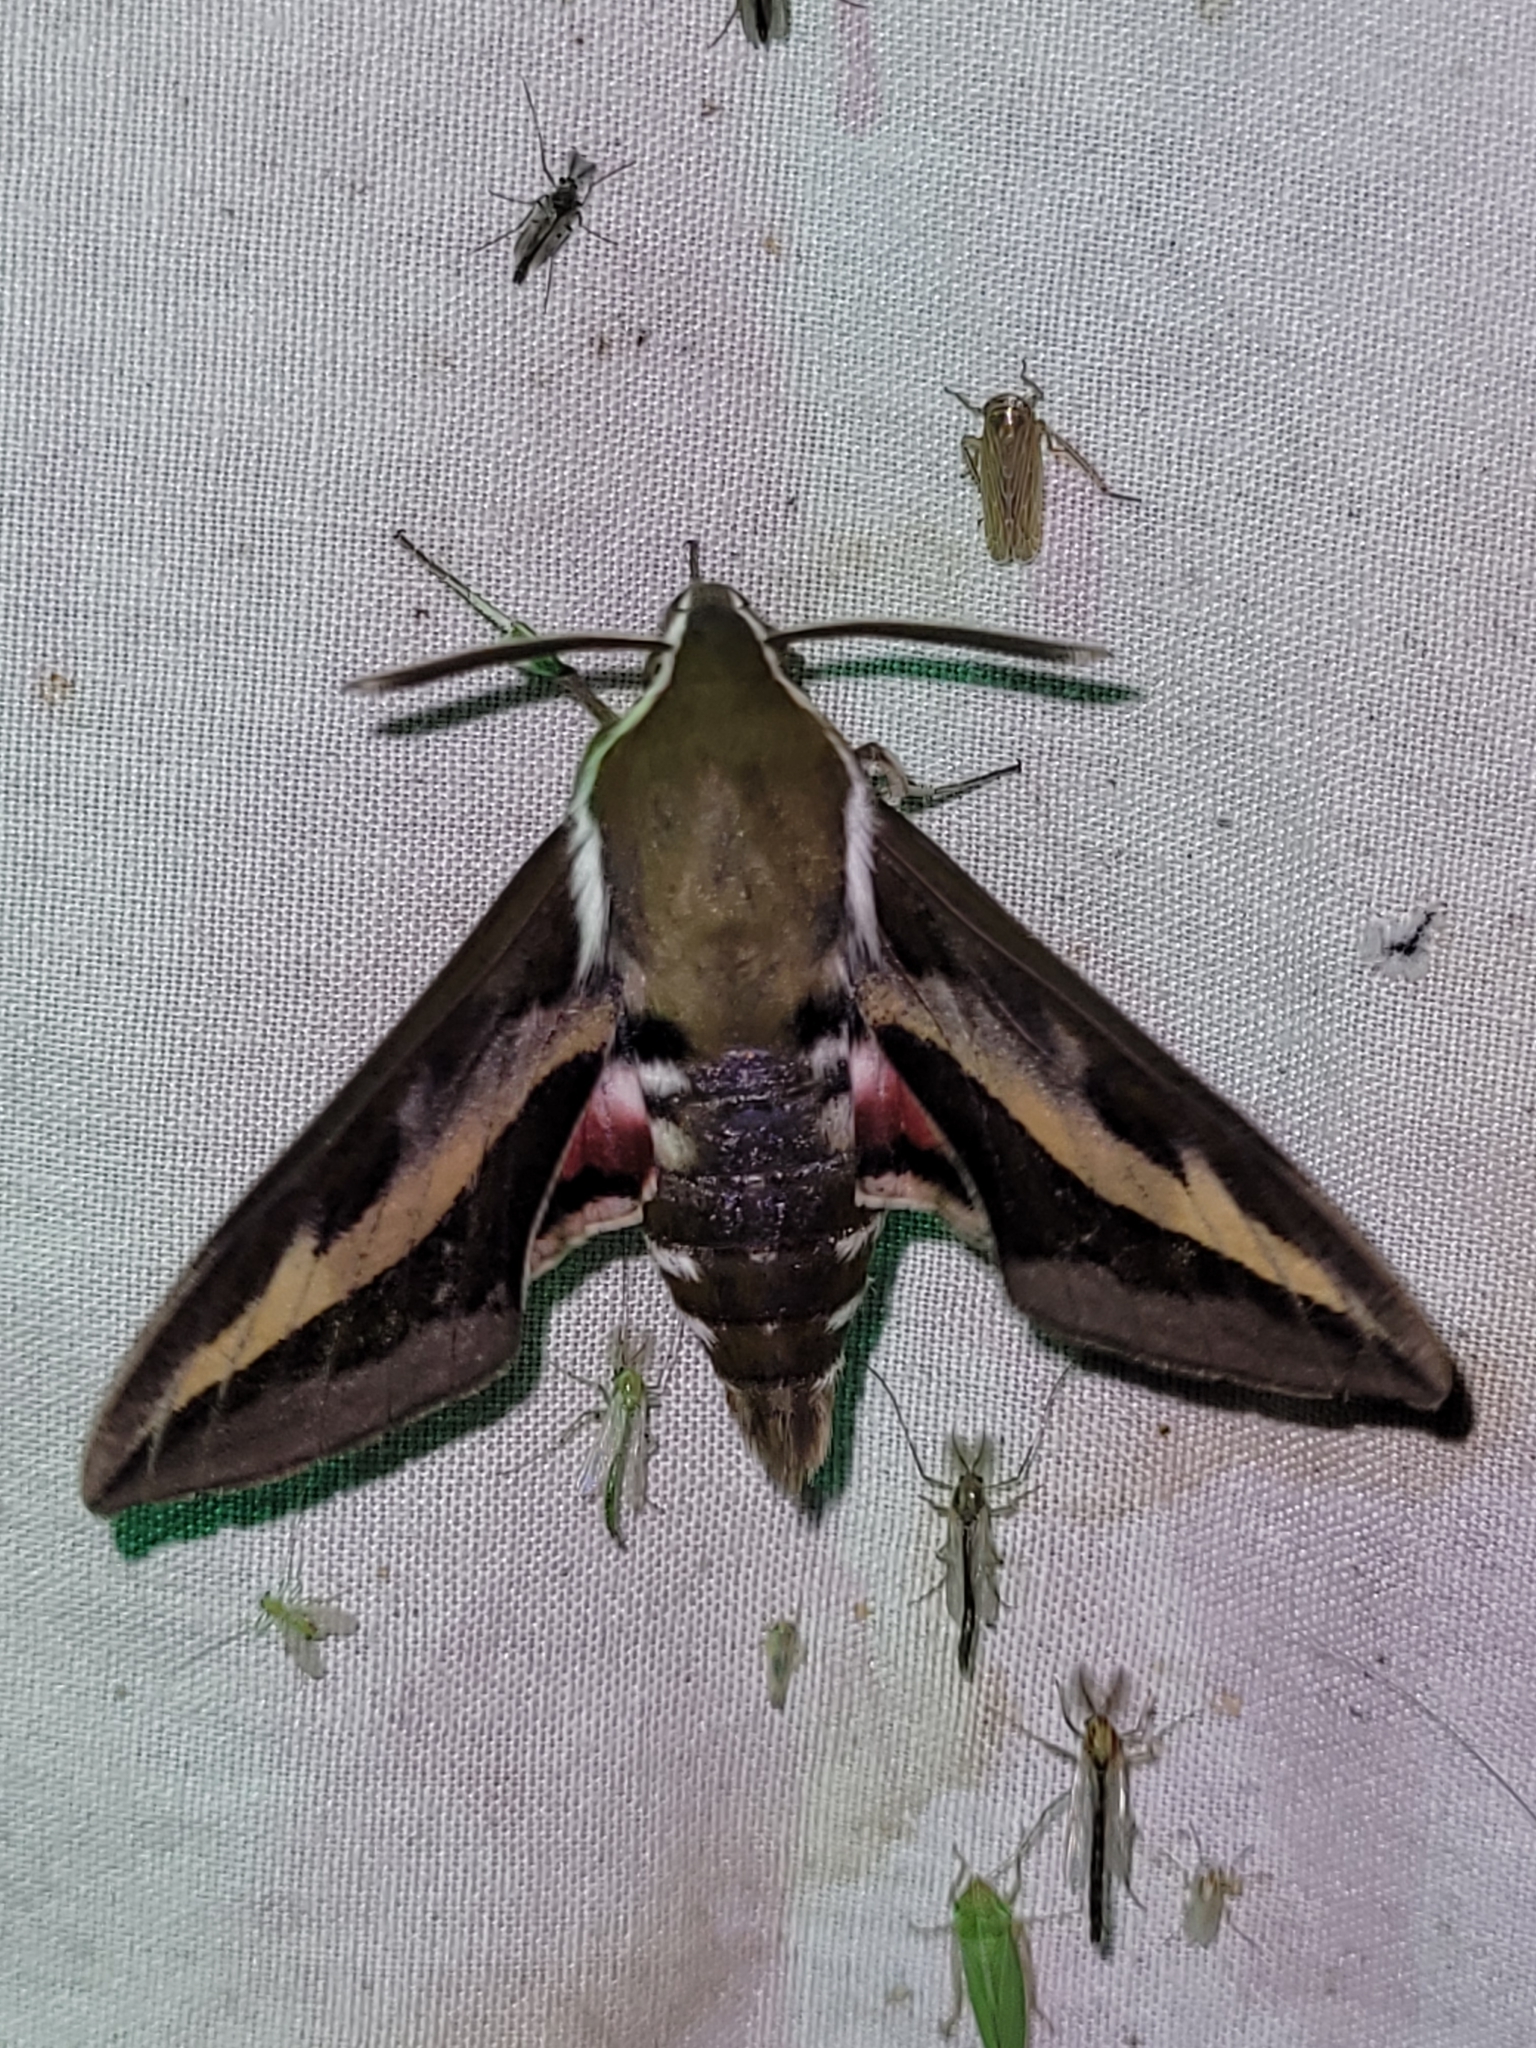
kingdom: Animalia
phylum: Arthropoda
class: Insecta
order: Lepidoptera
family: Sphingidae
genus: Hyles
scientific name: Hyles gallii
